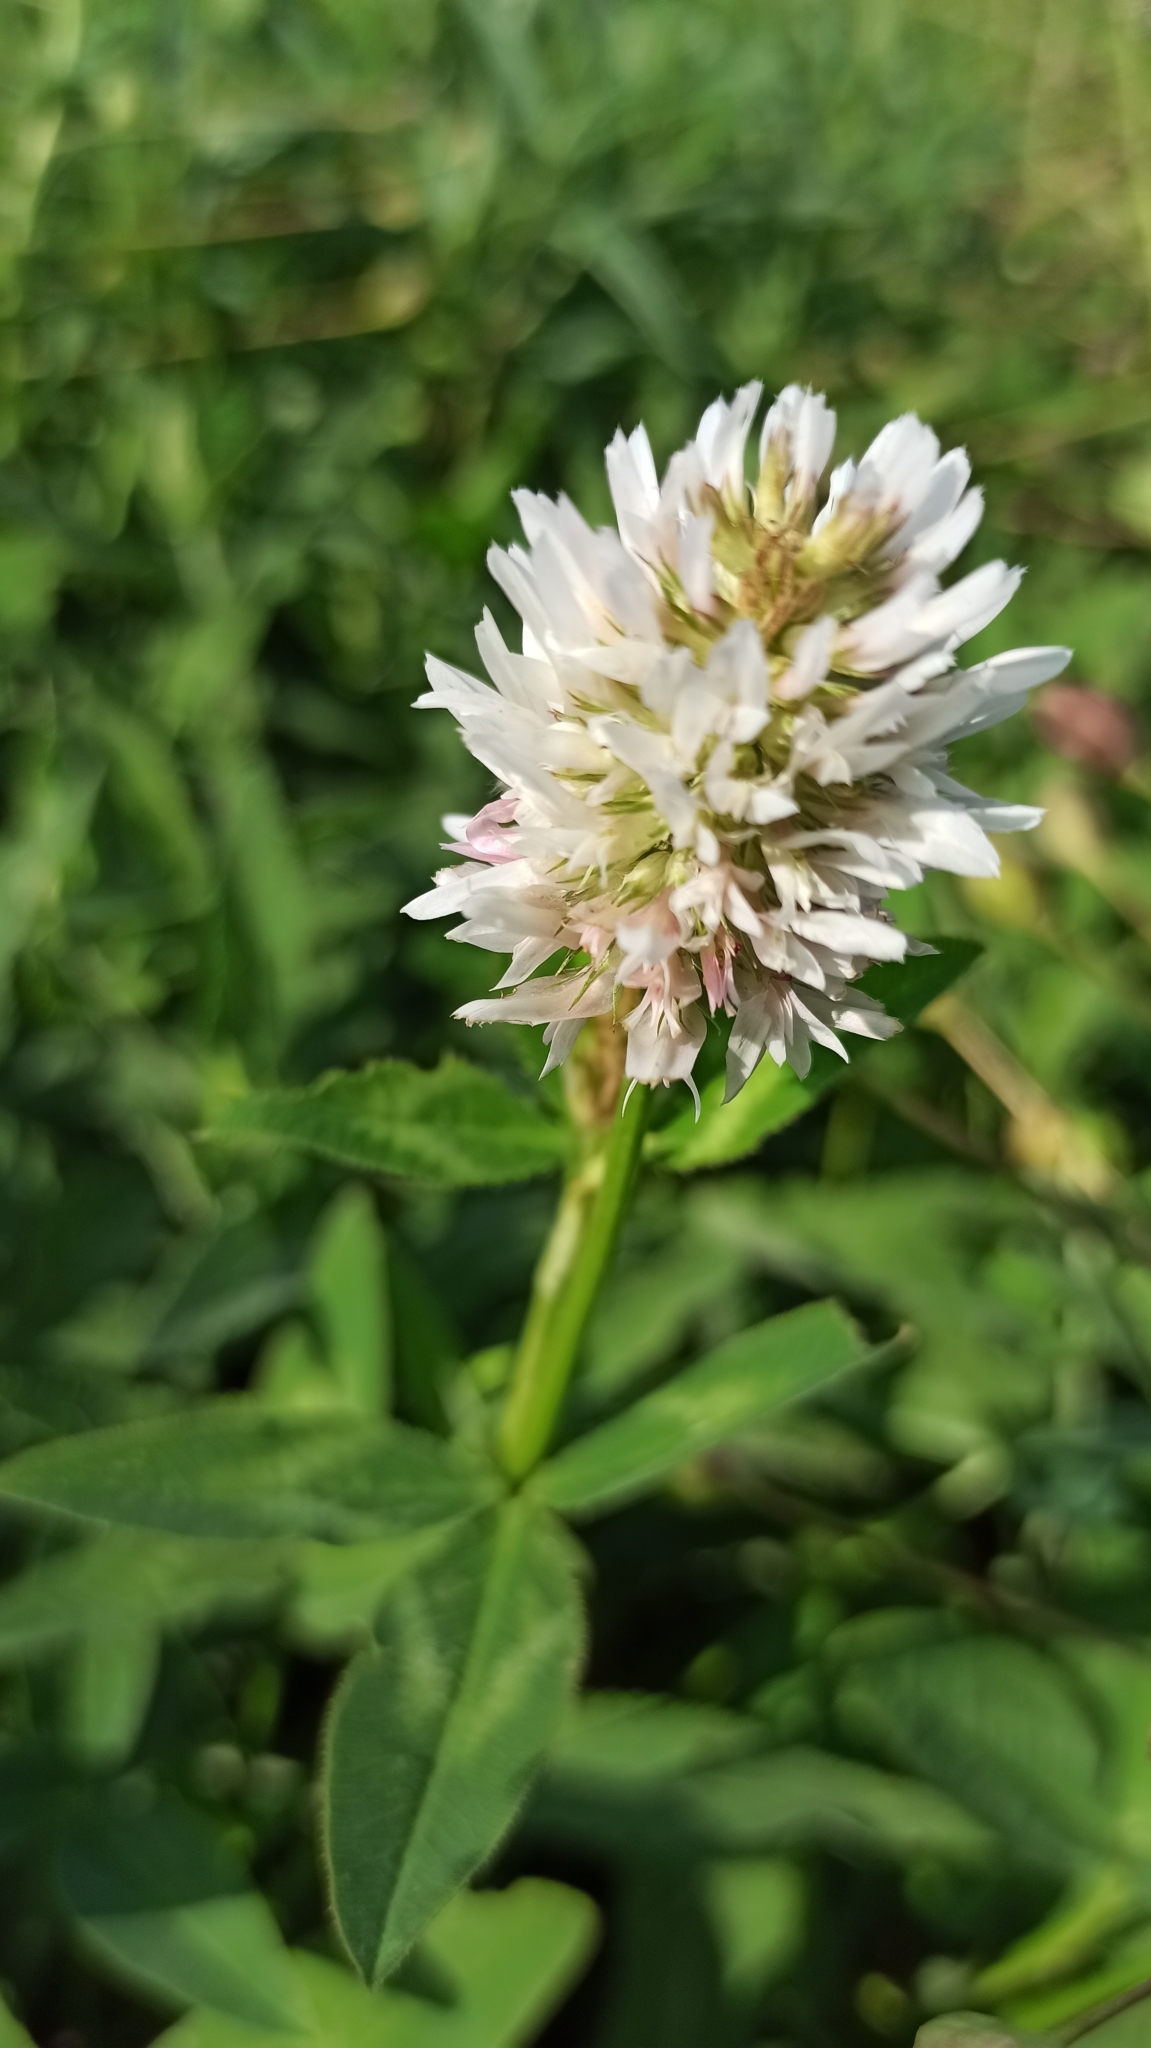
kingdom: Plantae
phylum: Tracheophyta
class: Magnoliopsida
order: Fabales
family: Fabaceae
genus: Trifolium
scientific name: Trifolium ambiguum
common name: Kura clover
